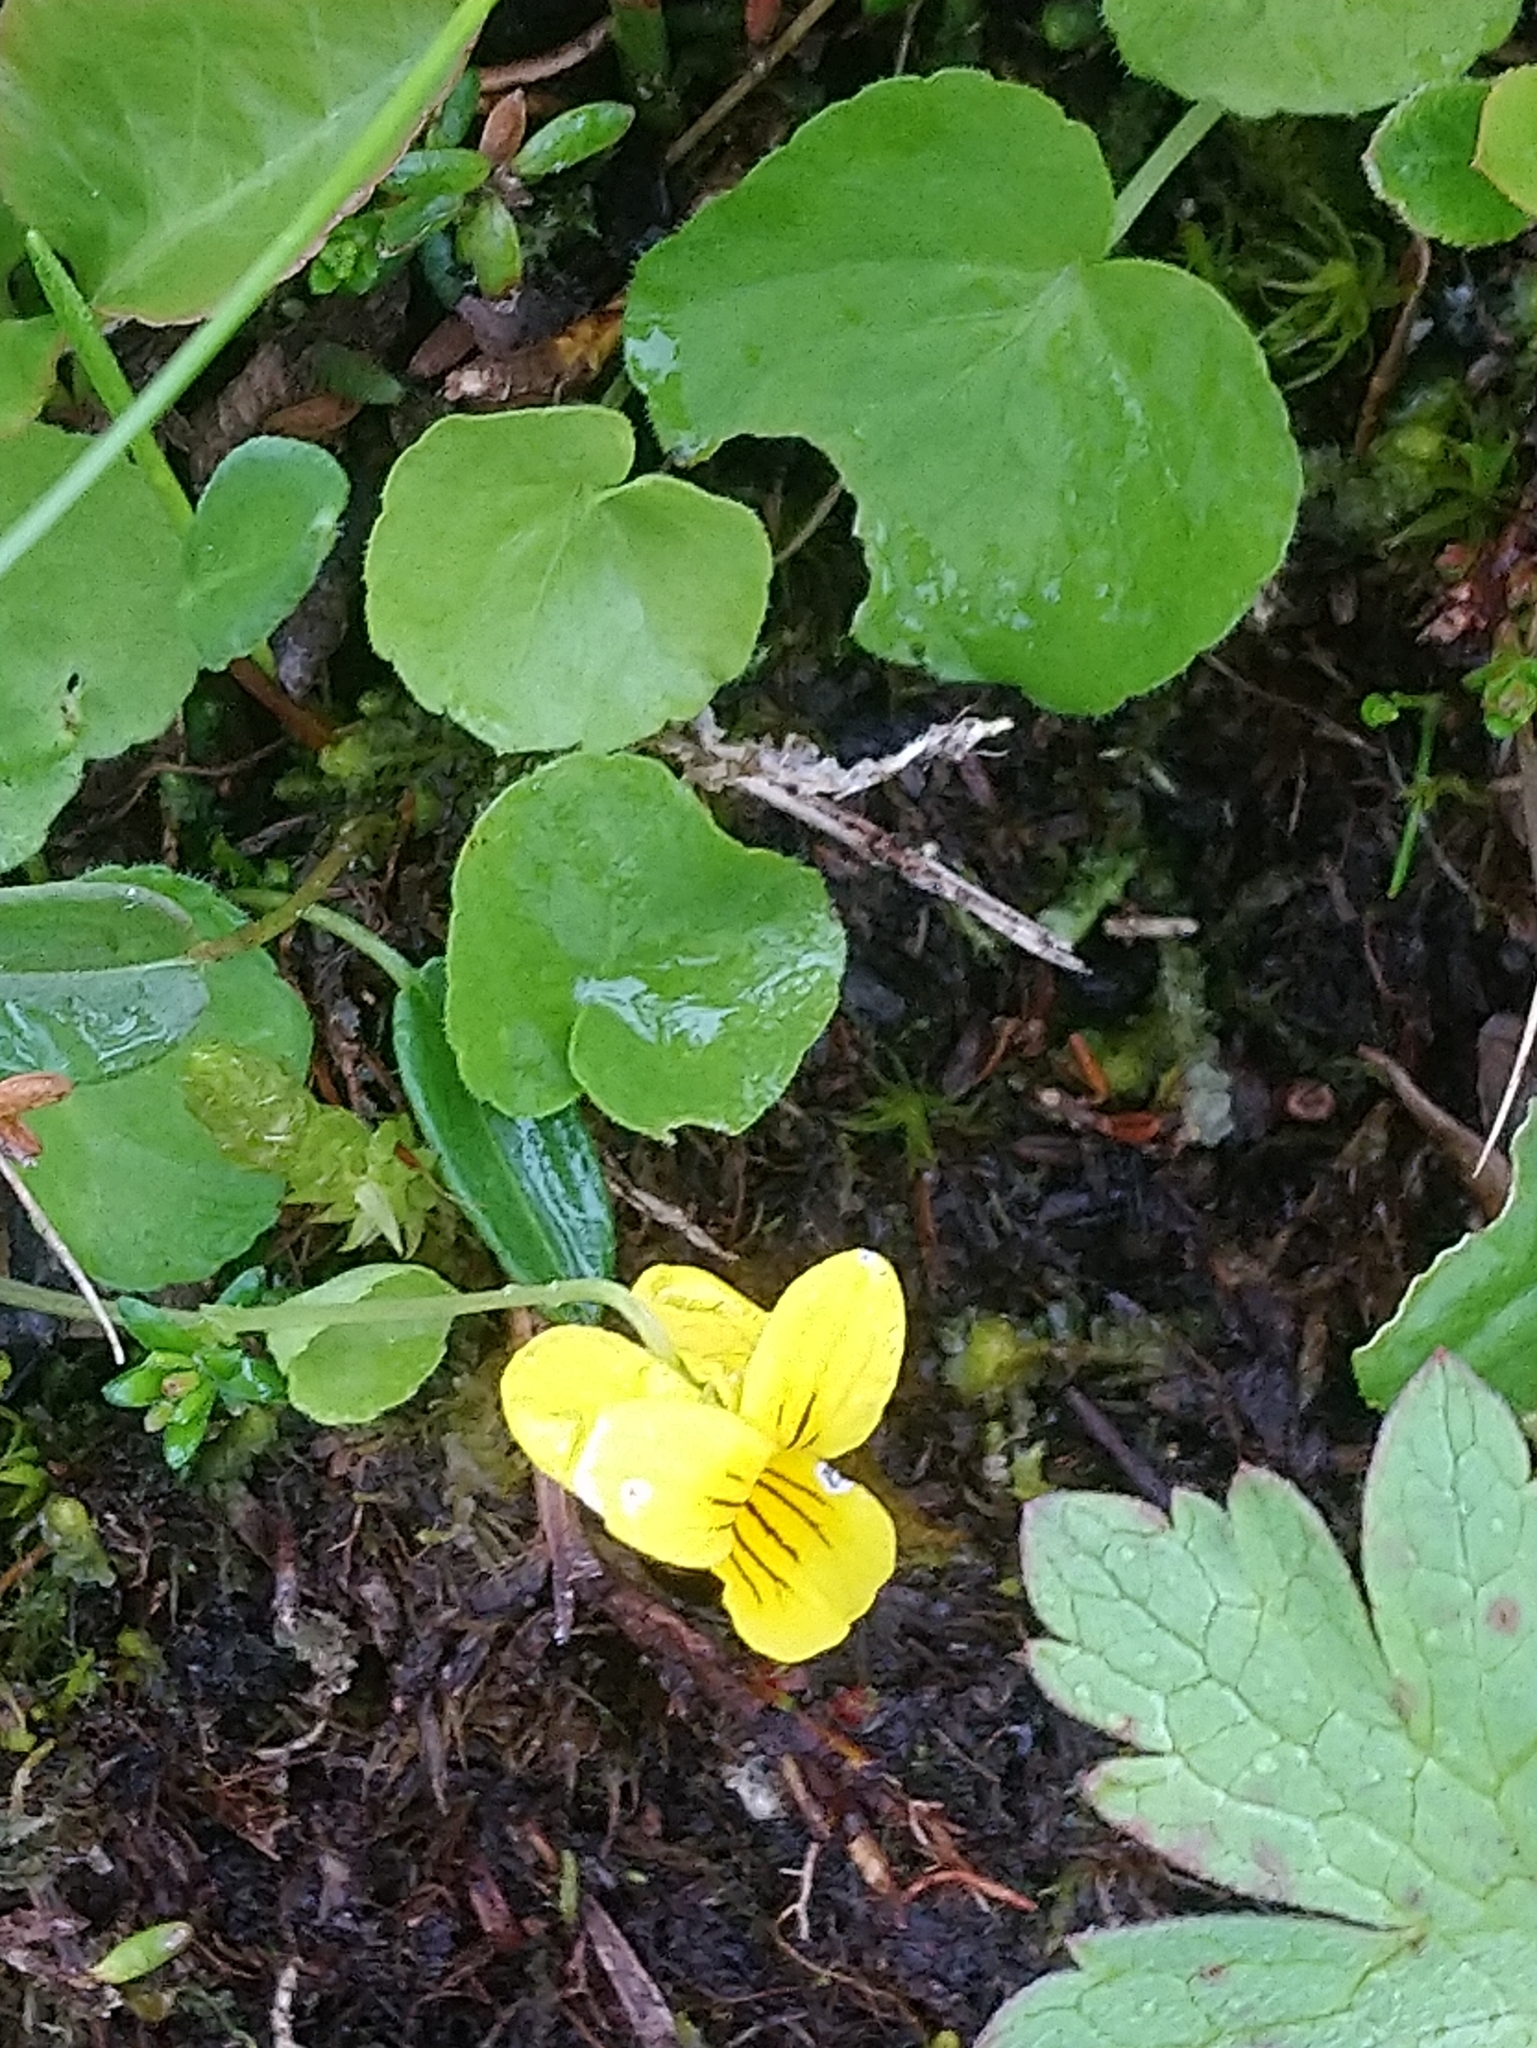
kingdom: Plantae
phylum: Tracheophyta
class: Magnoliopsida
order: Malpighiales
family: Violaceae
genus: Viola
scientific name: Viola biflora
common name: Alpine yellow violet
